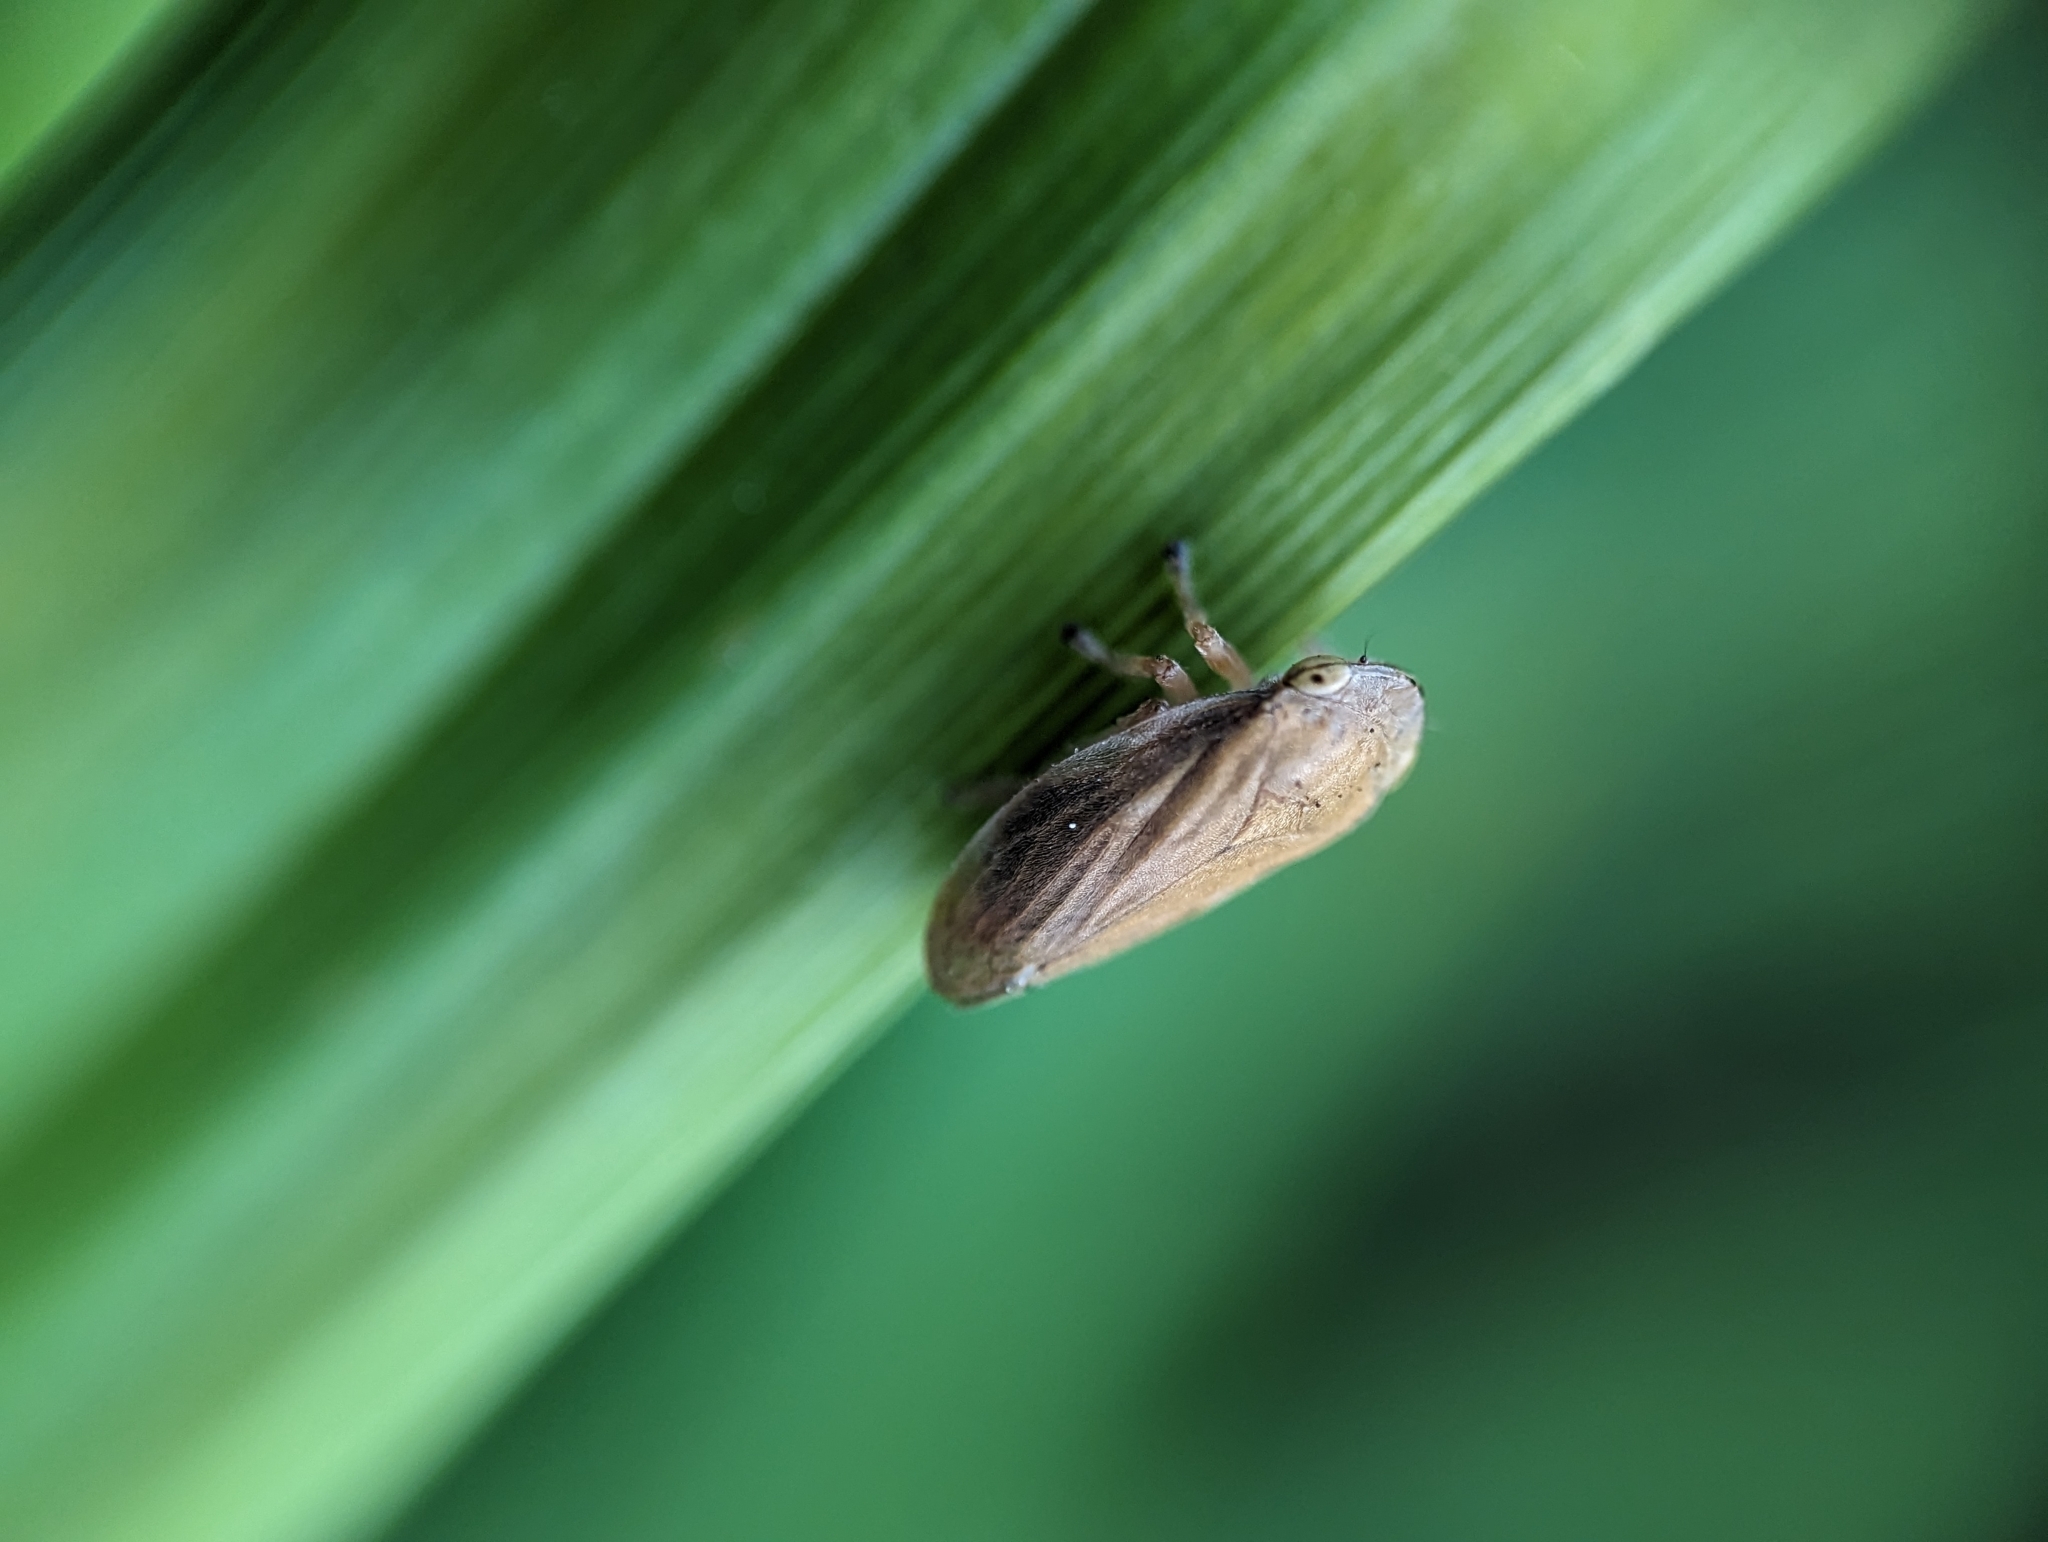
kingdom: Animalia
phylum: Arthropoda
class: Insecta
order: Hemiptera
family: Aphrophoridae
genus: Philaenus
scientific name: Philaenus spumarius
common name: Meadow spittlebug
